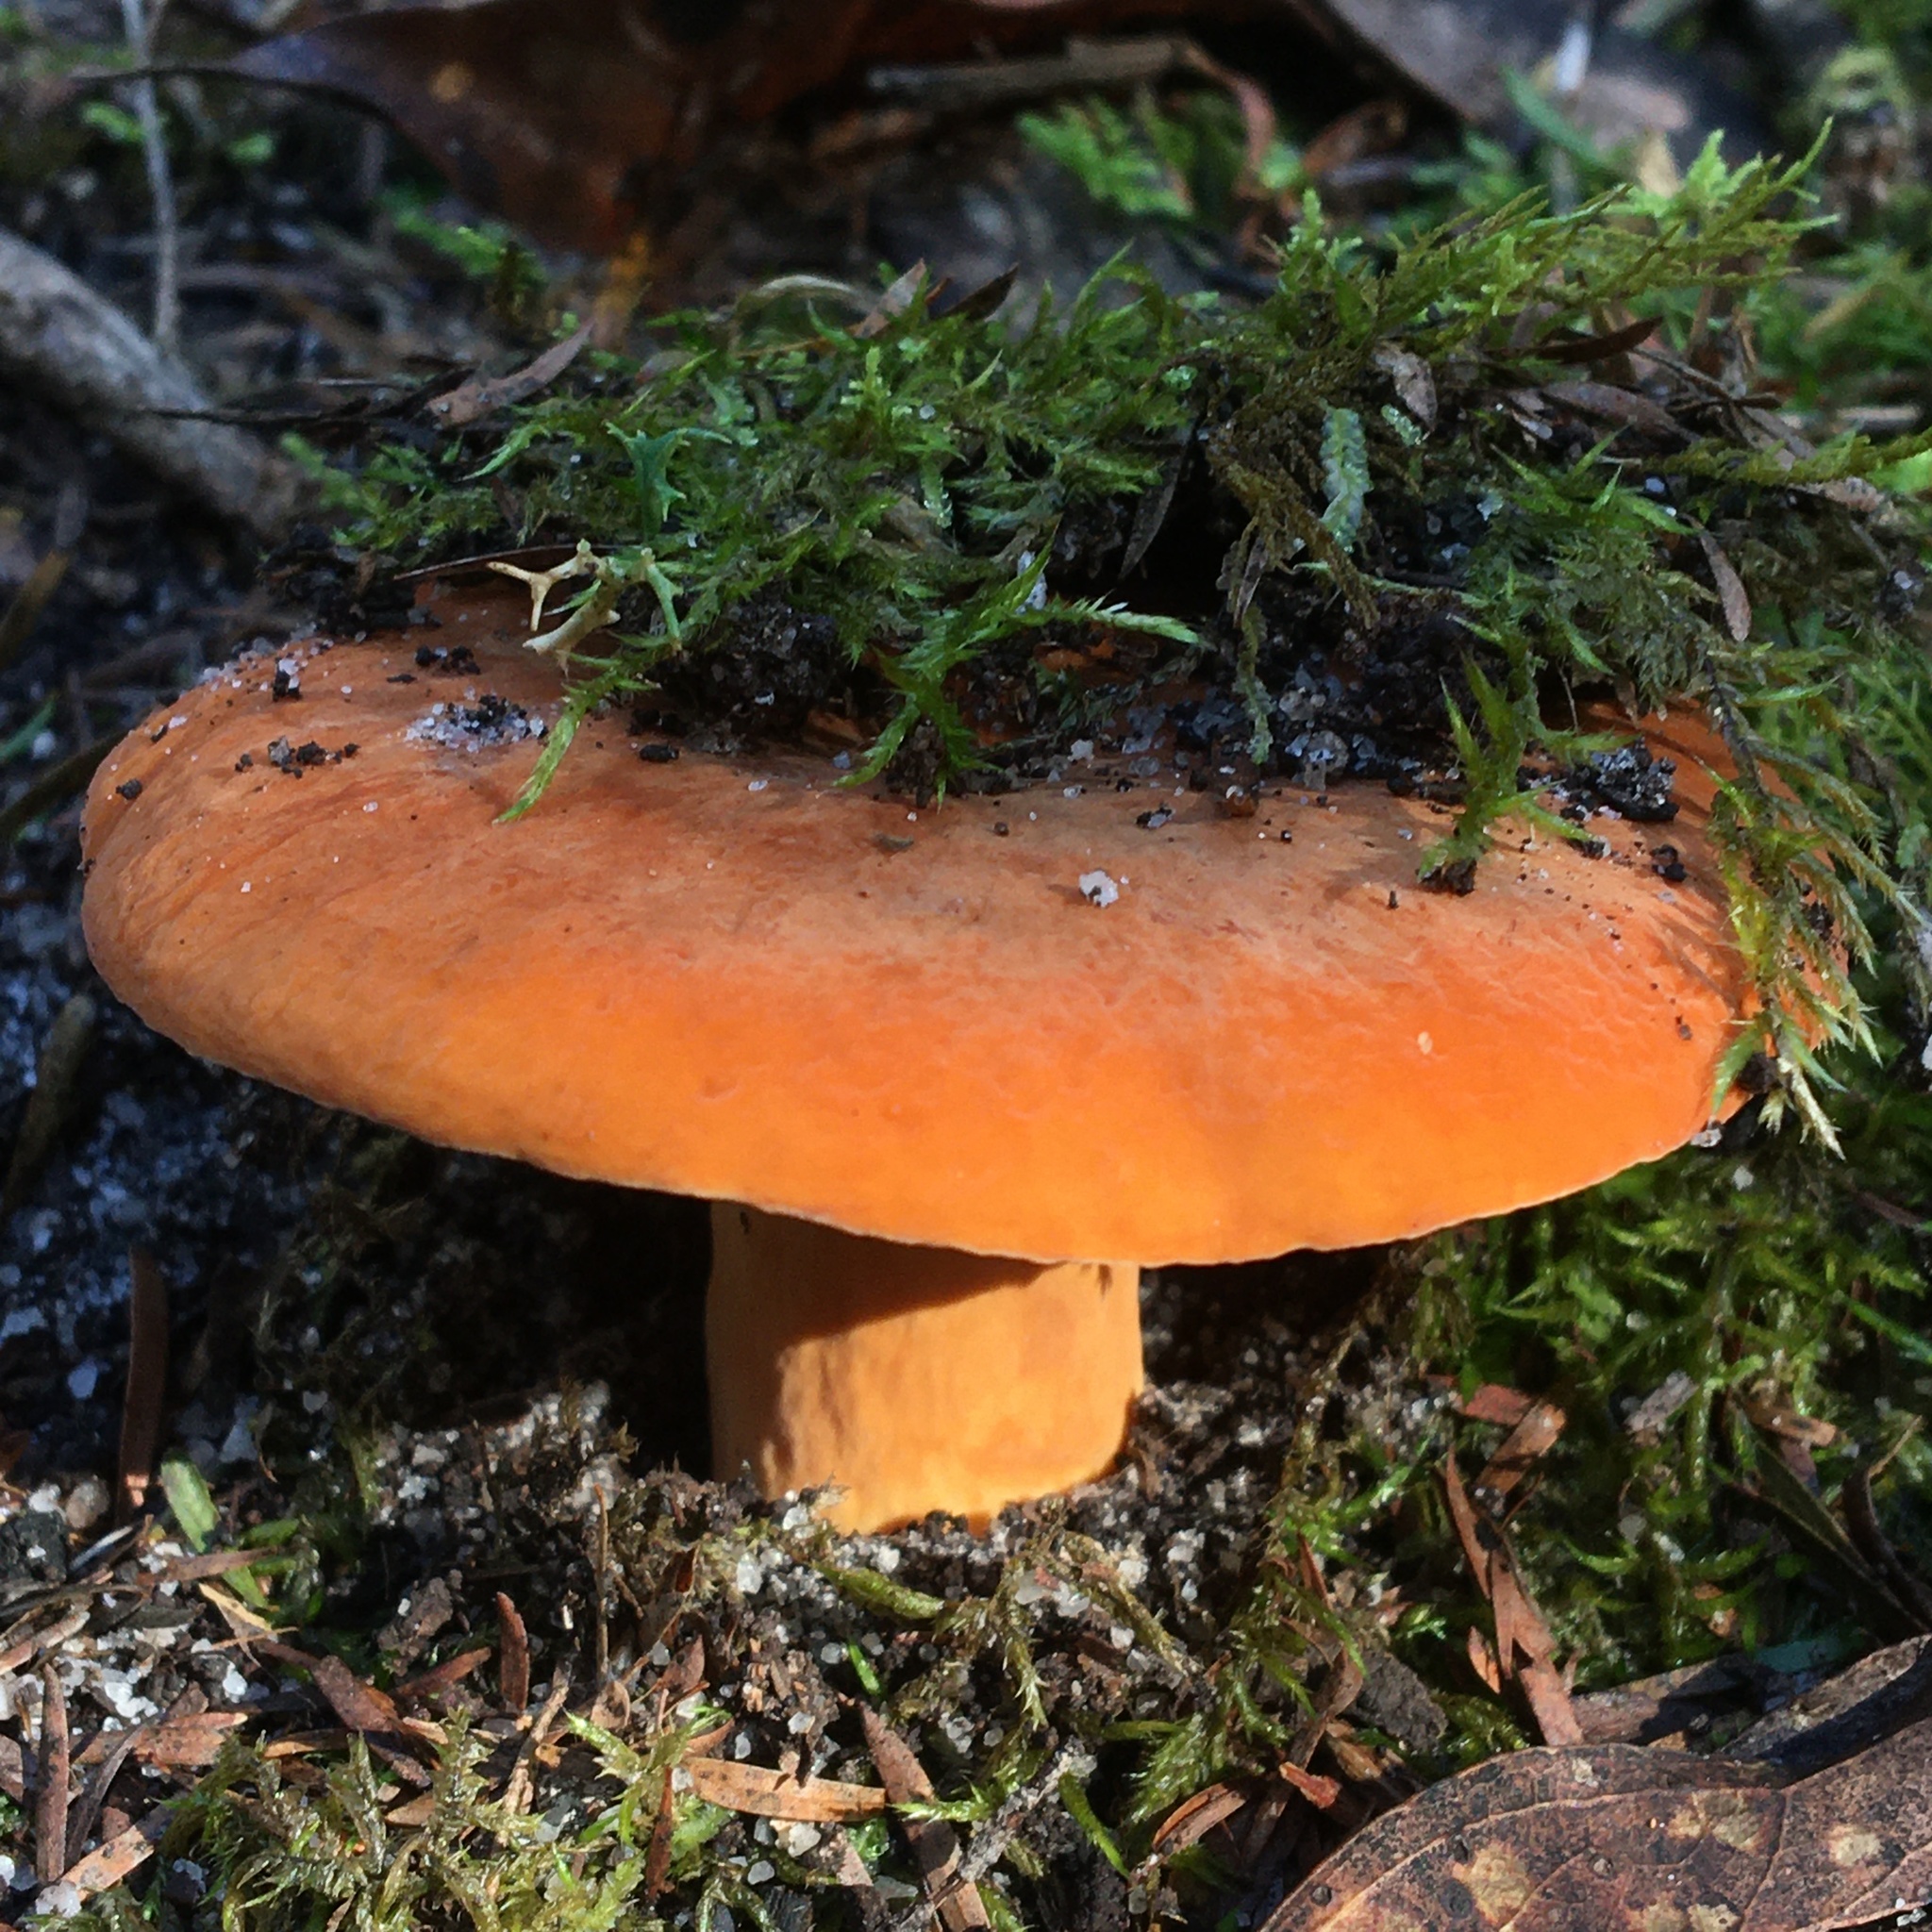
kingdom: Fungi
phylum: Basidiomycota
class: Agaricomycetes
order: Russulales
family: Russulaceae
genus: Lactifluus
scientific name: Lactifluus flocktoniae
